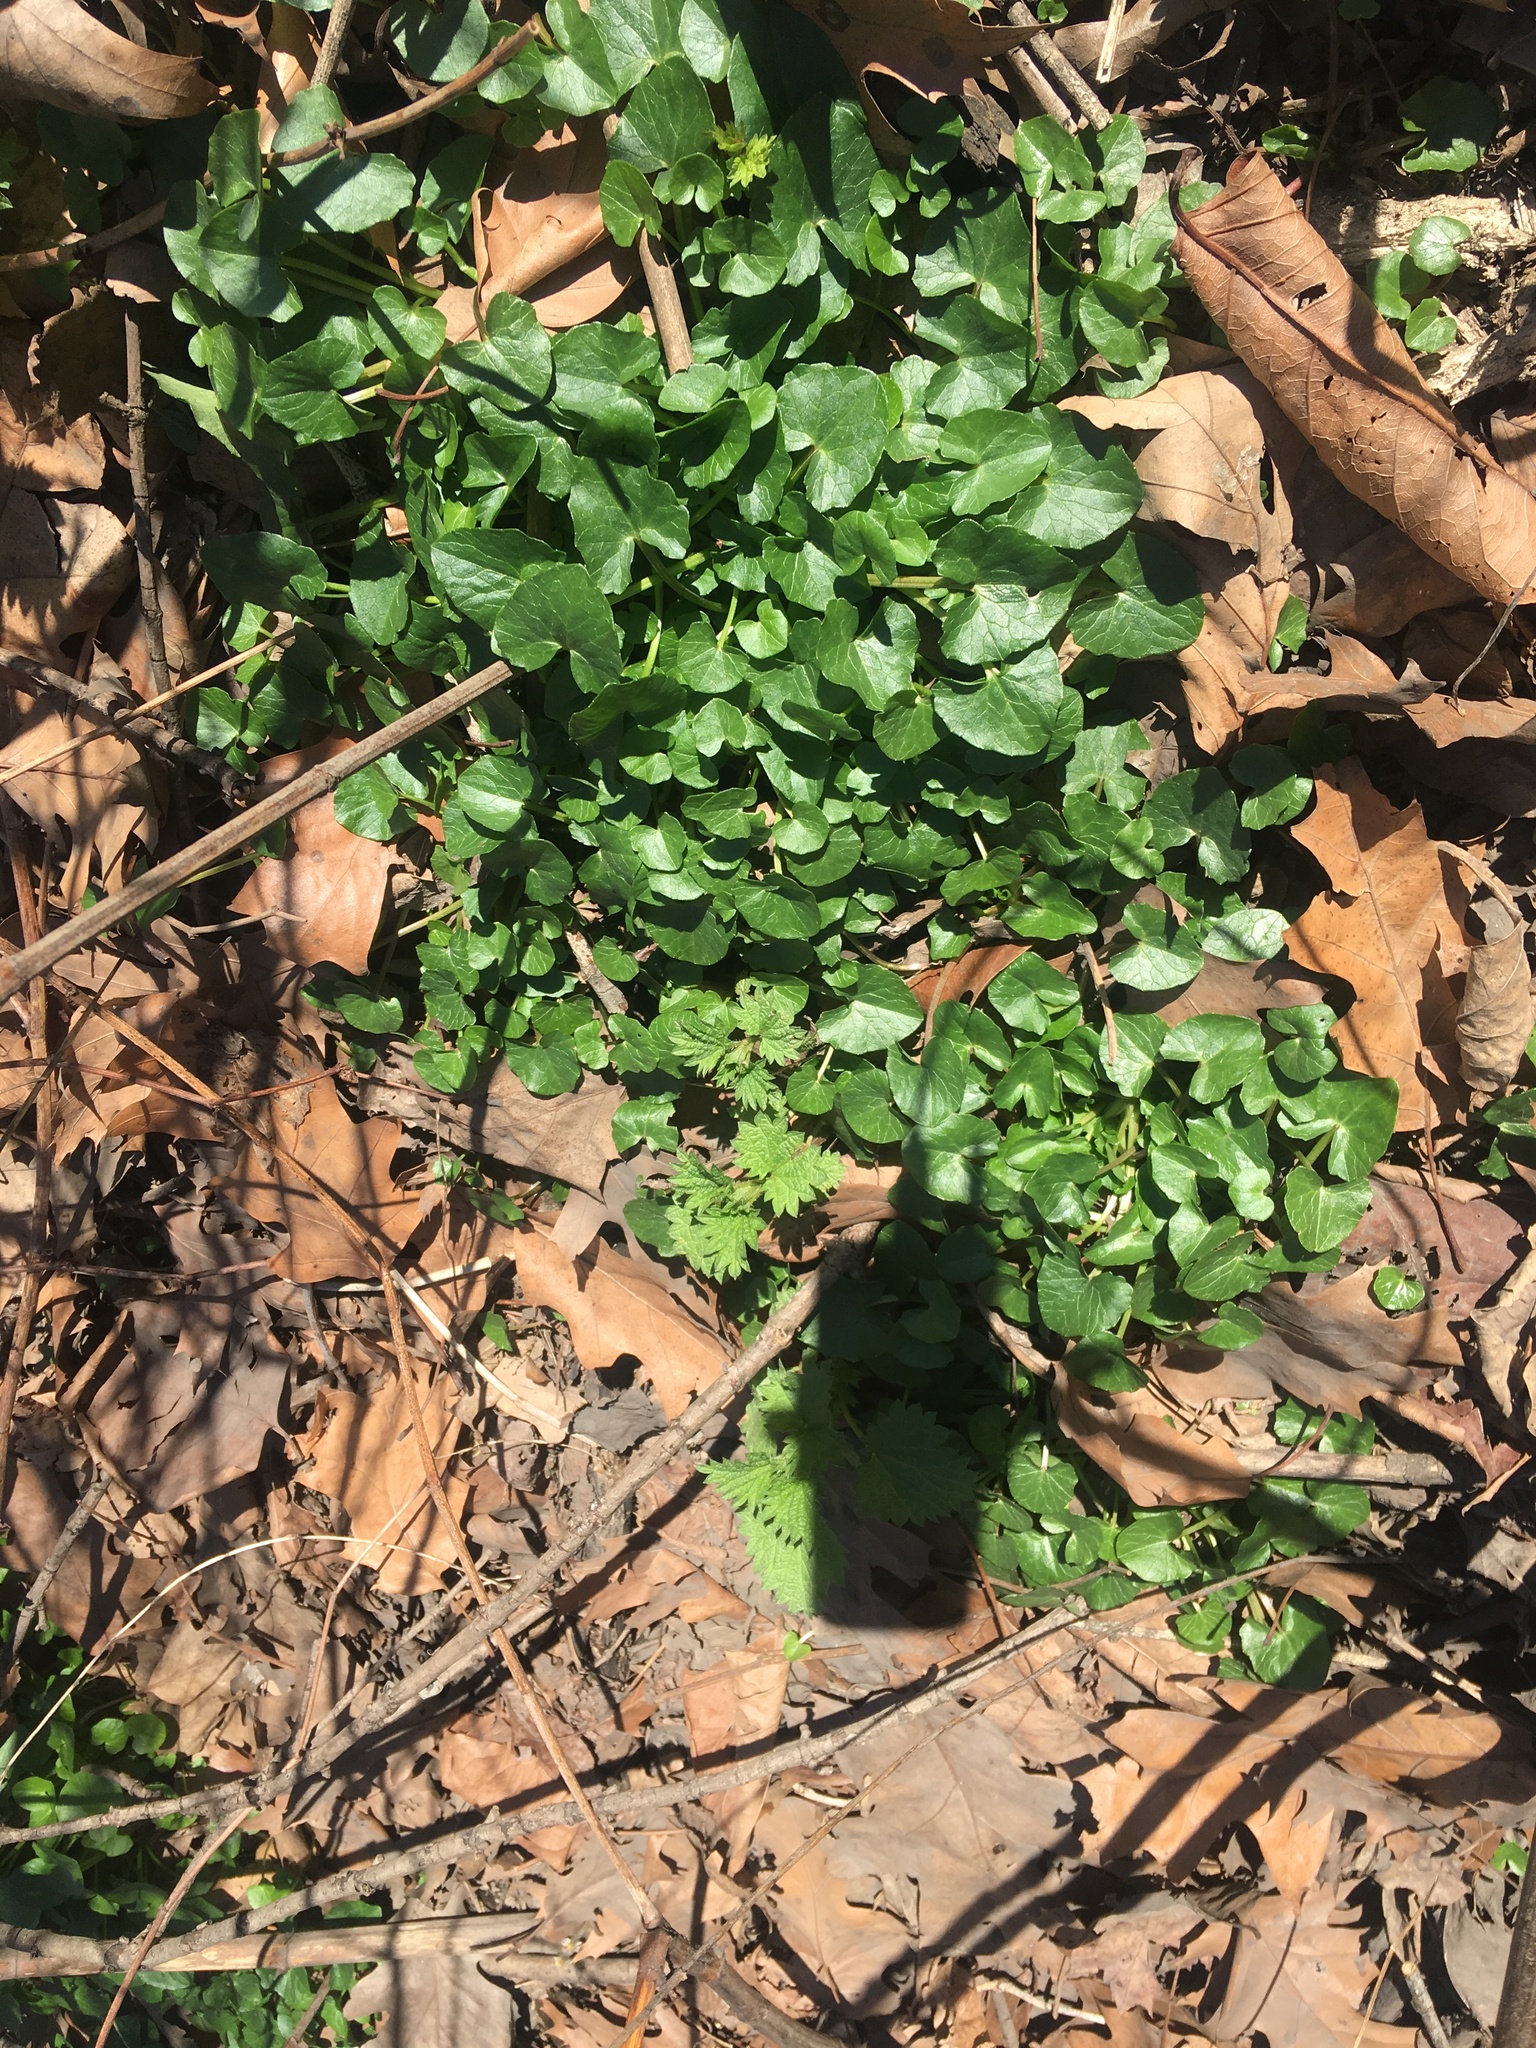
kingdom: Plantae
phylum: Tracheophyta
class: Magnoliopsida
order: Ranunculales
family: Ranunculaceae
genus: Ficaria
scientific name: Ficaria verna
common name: Lesser celandine
